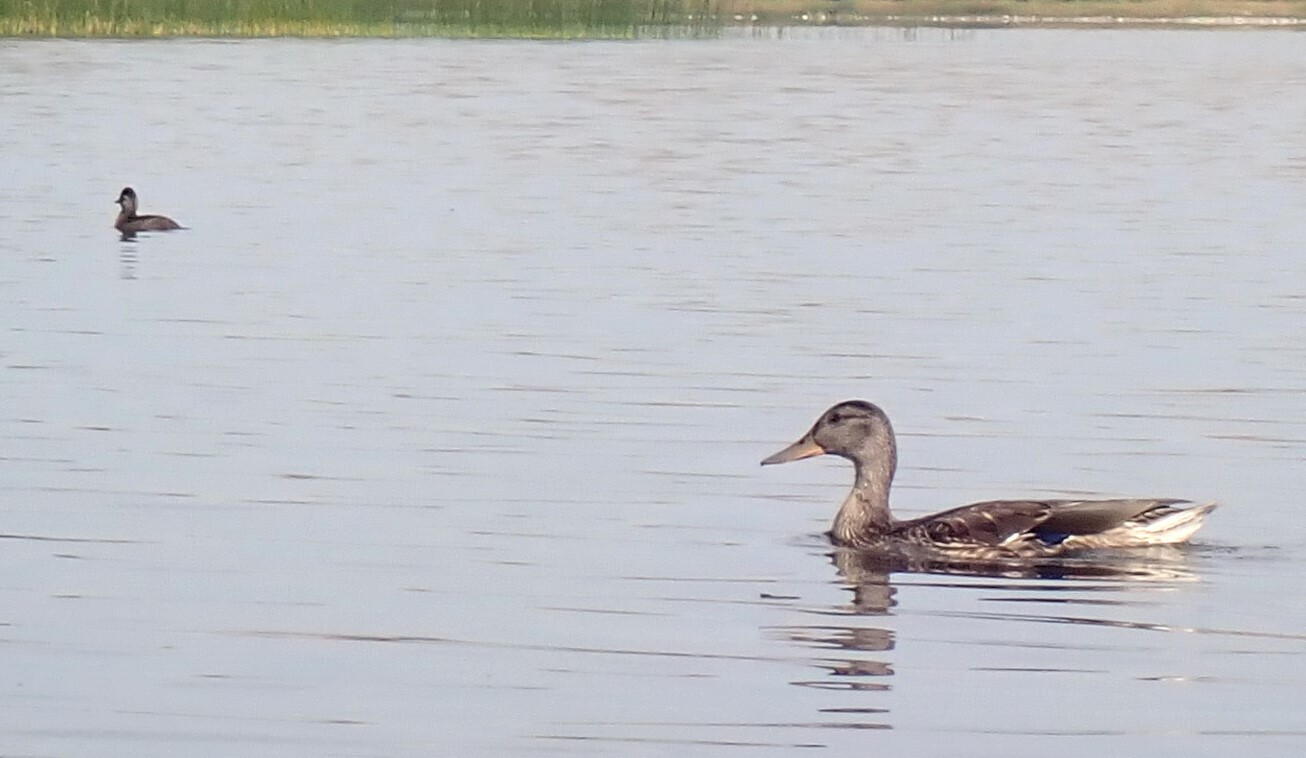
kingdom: Animalia
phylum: Chordata
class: Aves
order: Anseriformes
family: Anatidae
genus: Anas
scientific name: Anas platyrhynchos
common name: Mallard
